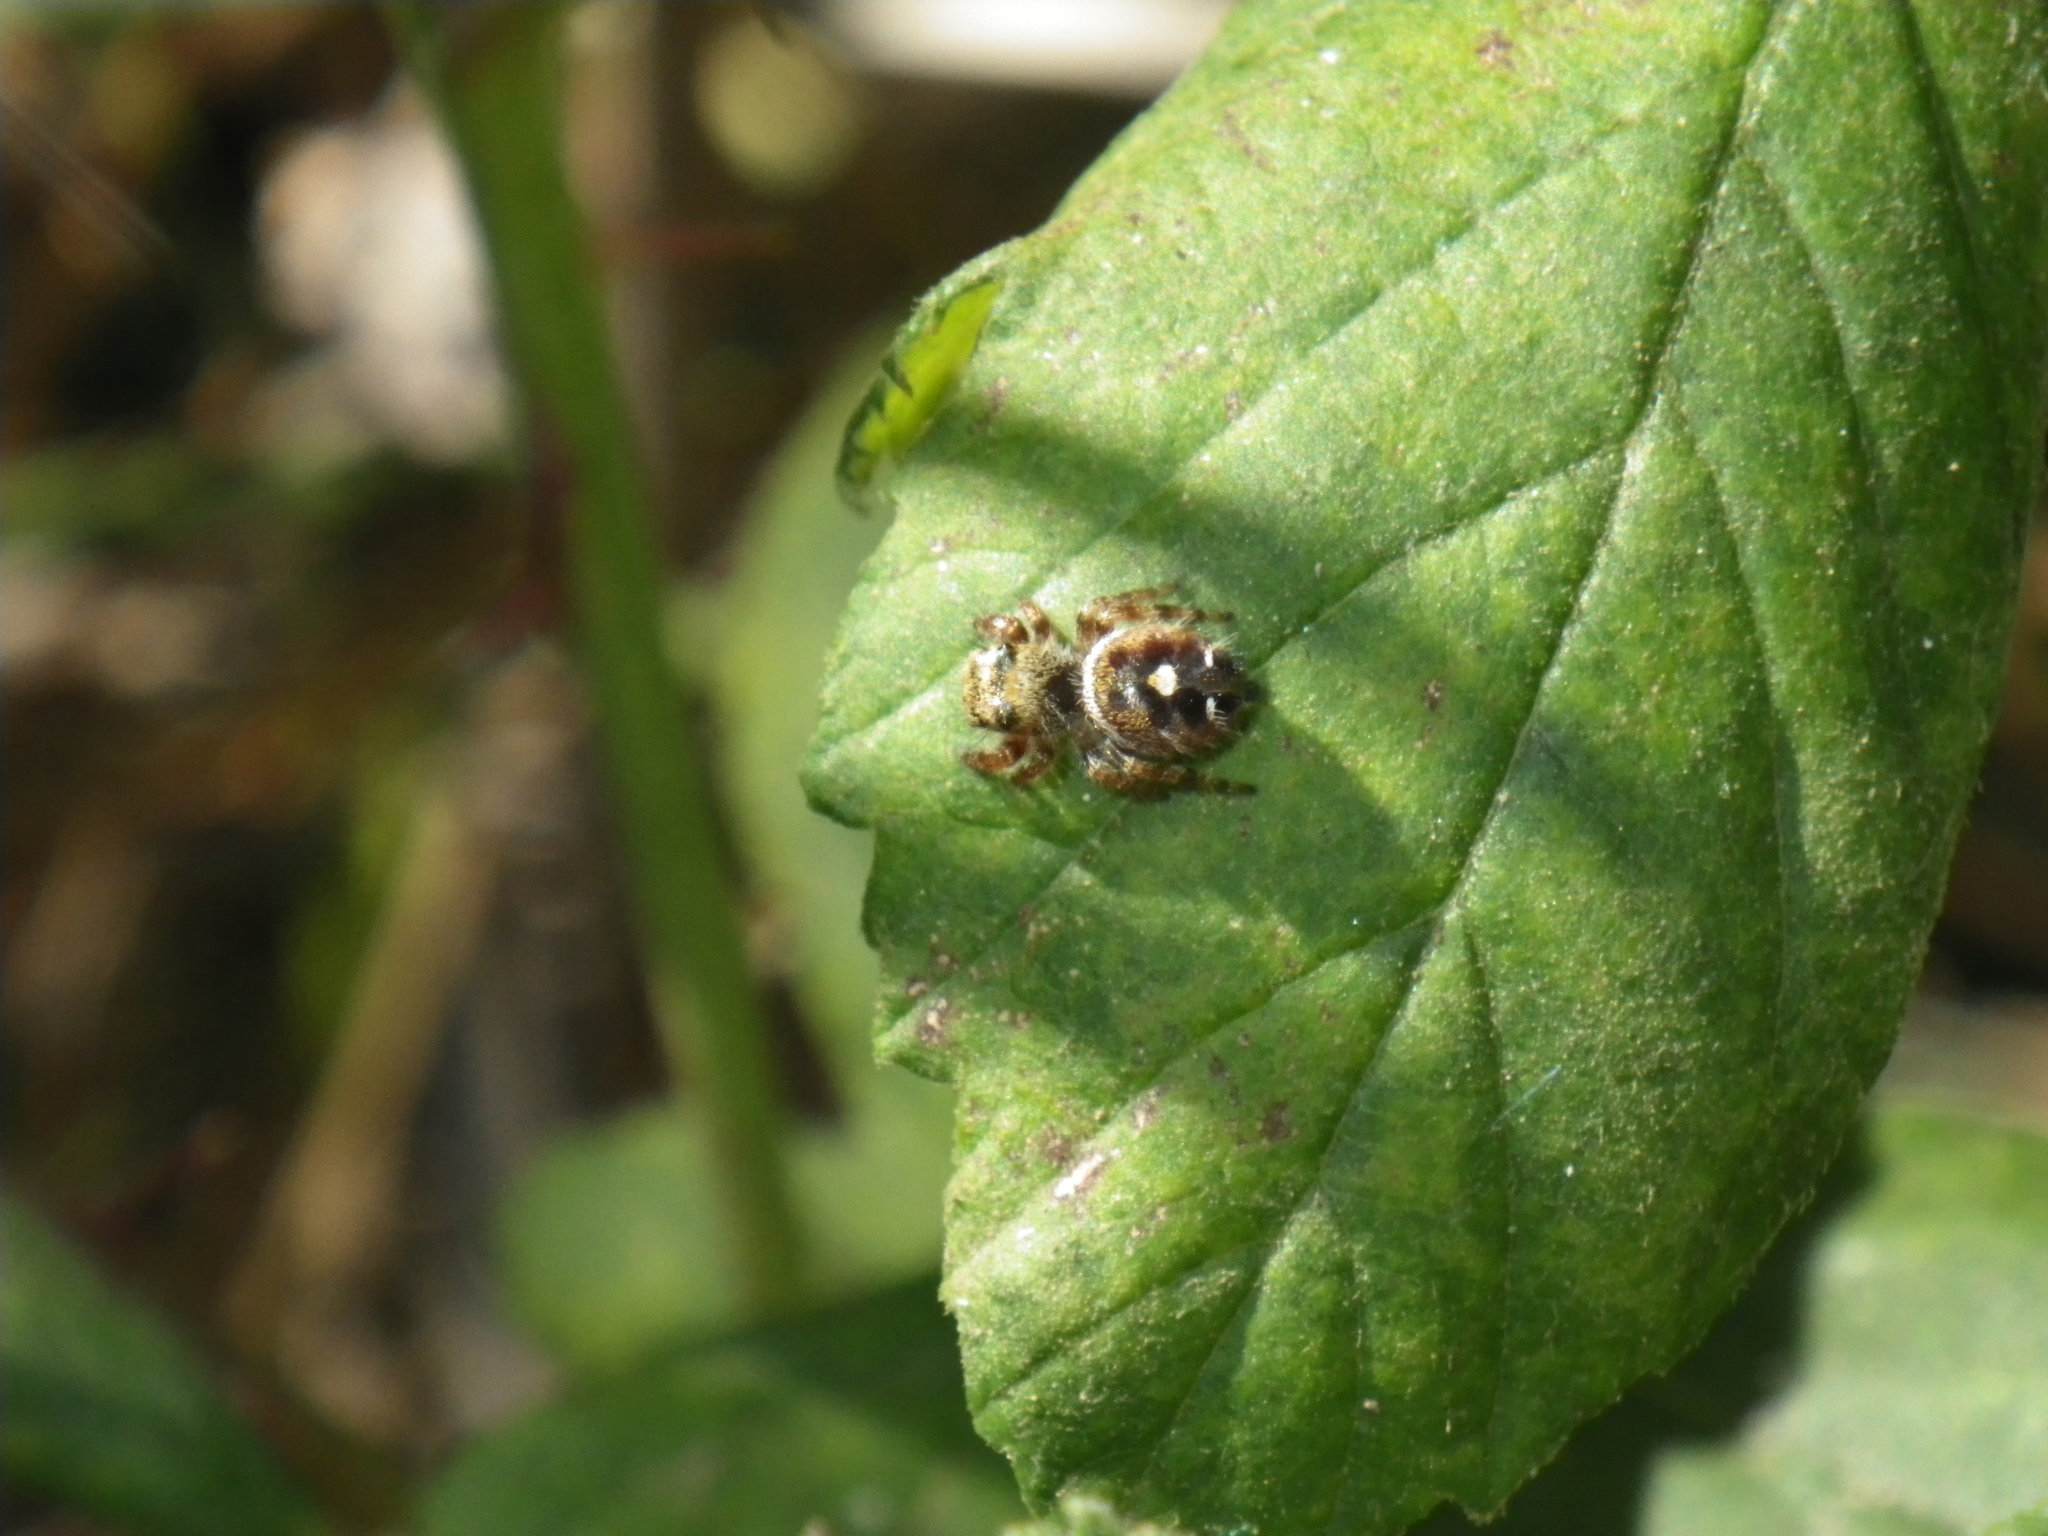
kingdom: Animalia
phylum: Arthropoda
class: Arachnida
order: Araneae
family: Salticidae
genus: Phidippus
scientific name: Phidippus audax
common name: Bold jumper
